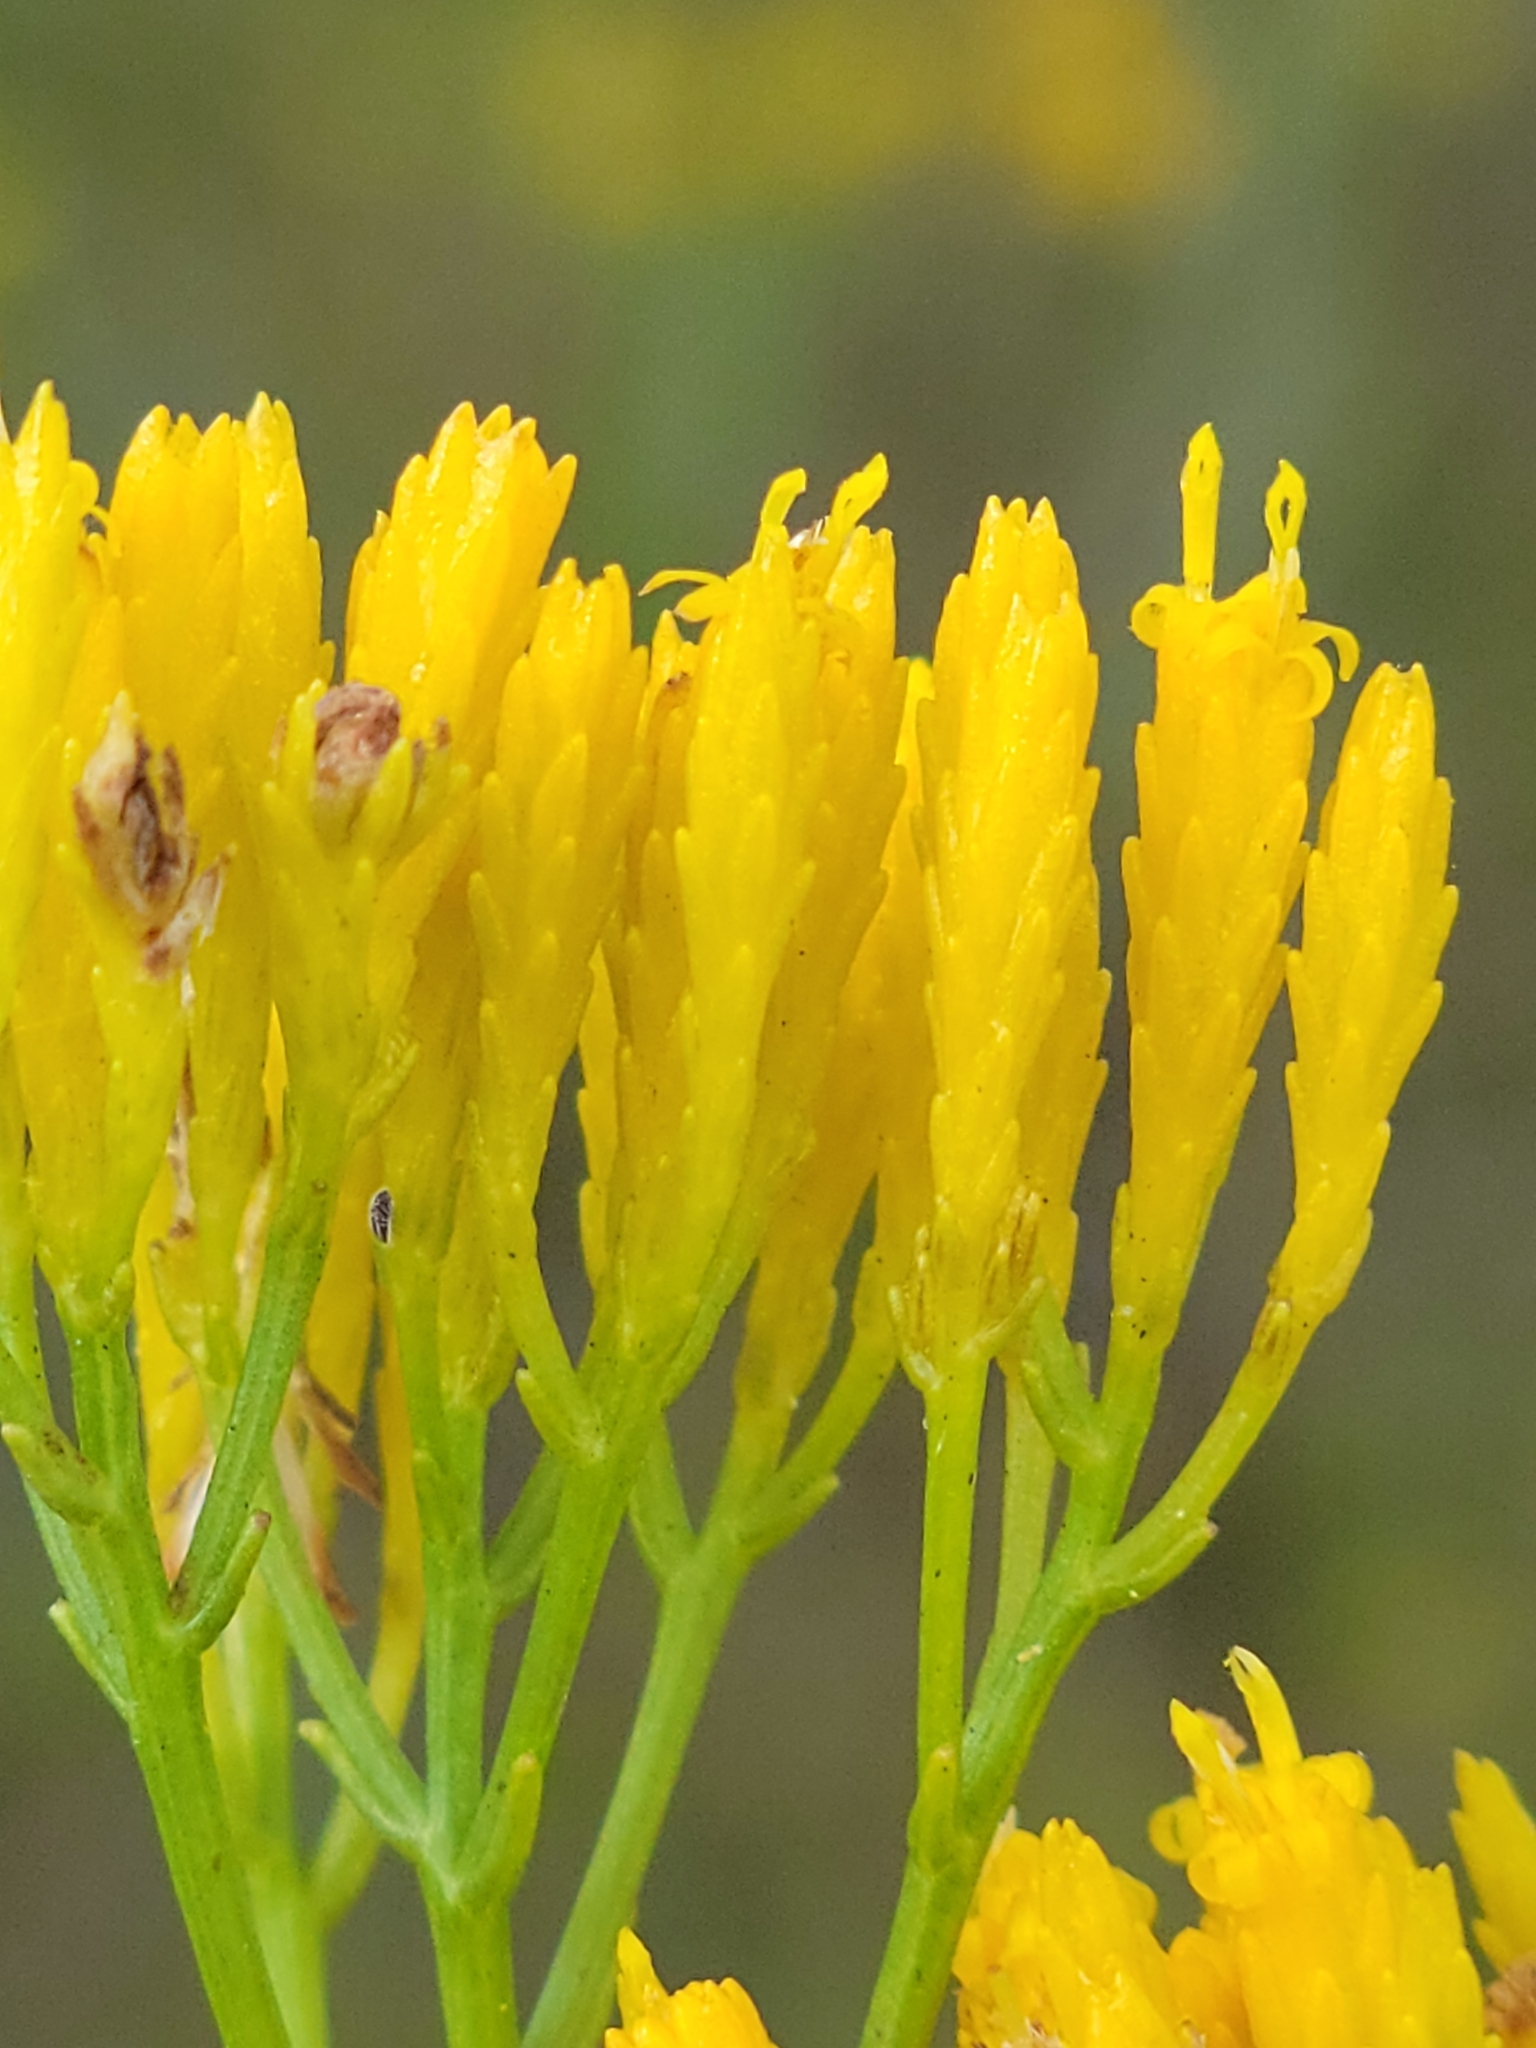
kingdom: Plantae
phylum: Tracheophyta
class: Magnoliopsida
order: Asterales
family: Asteraceae
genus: Bigelowia
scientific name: Bigelowia australis
